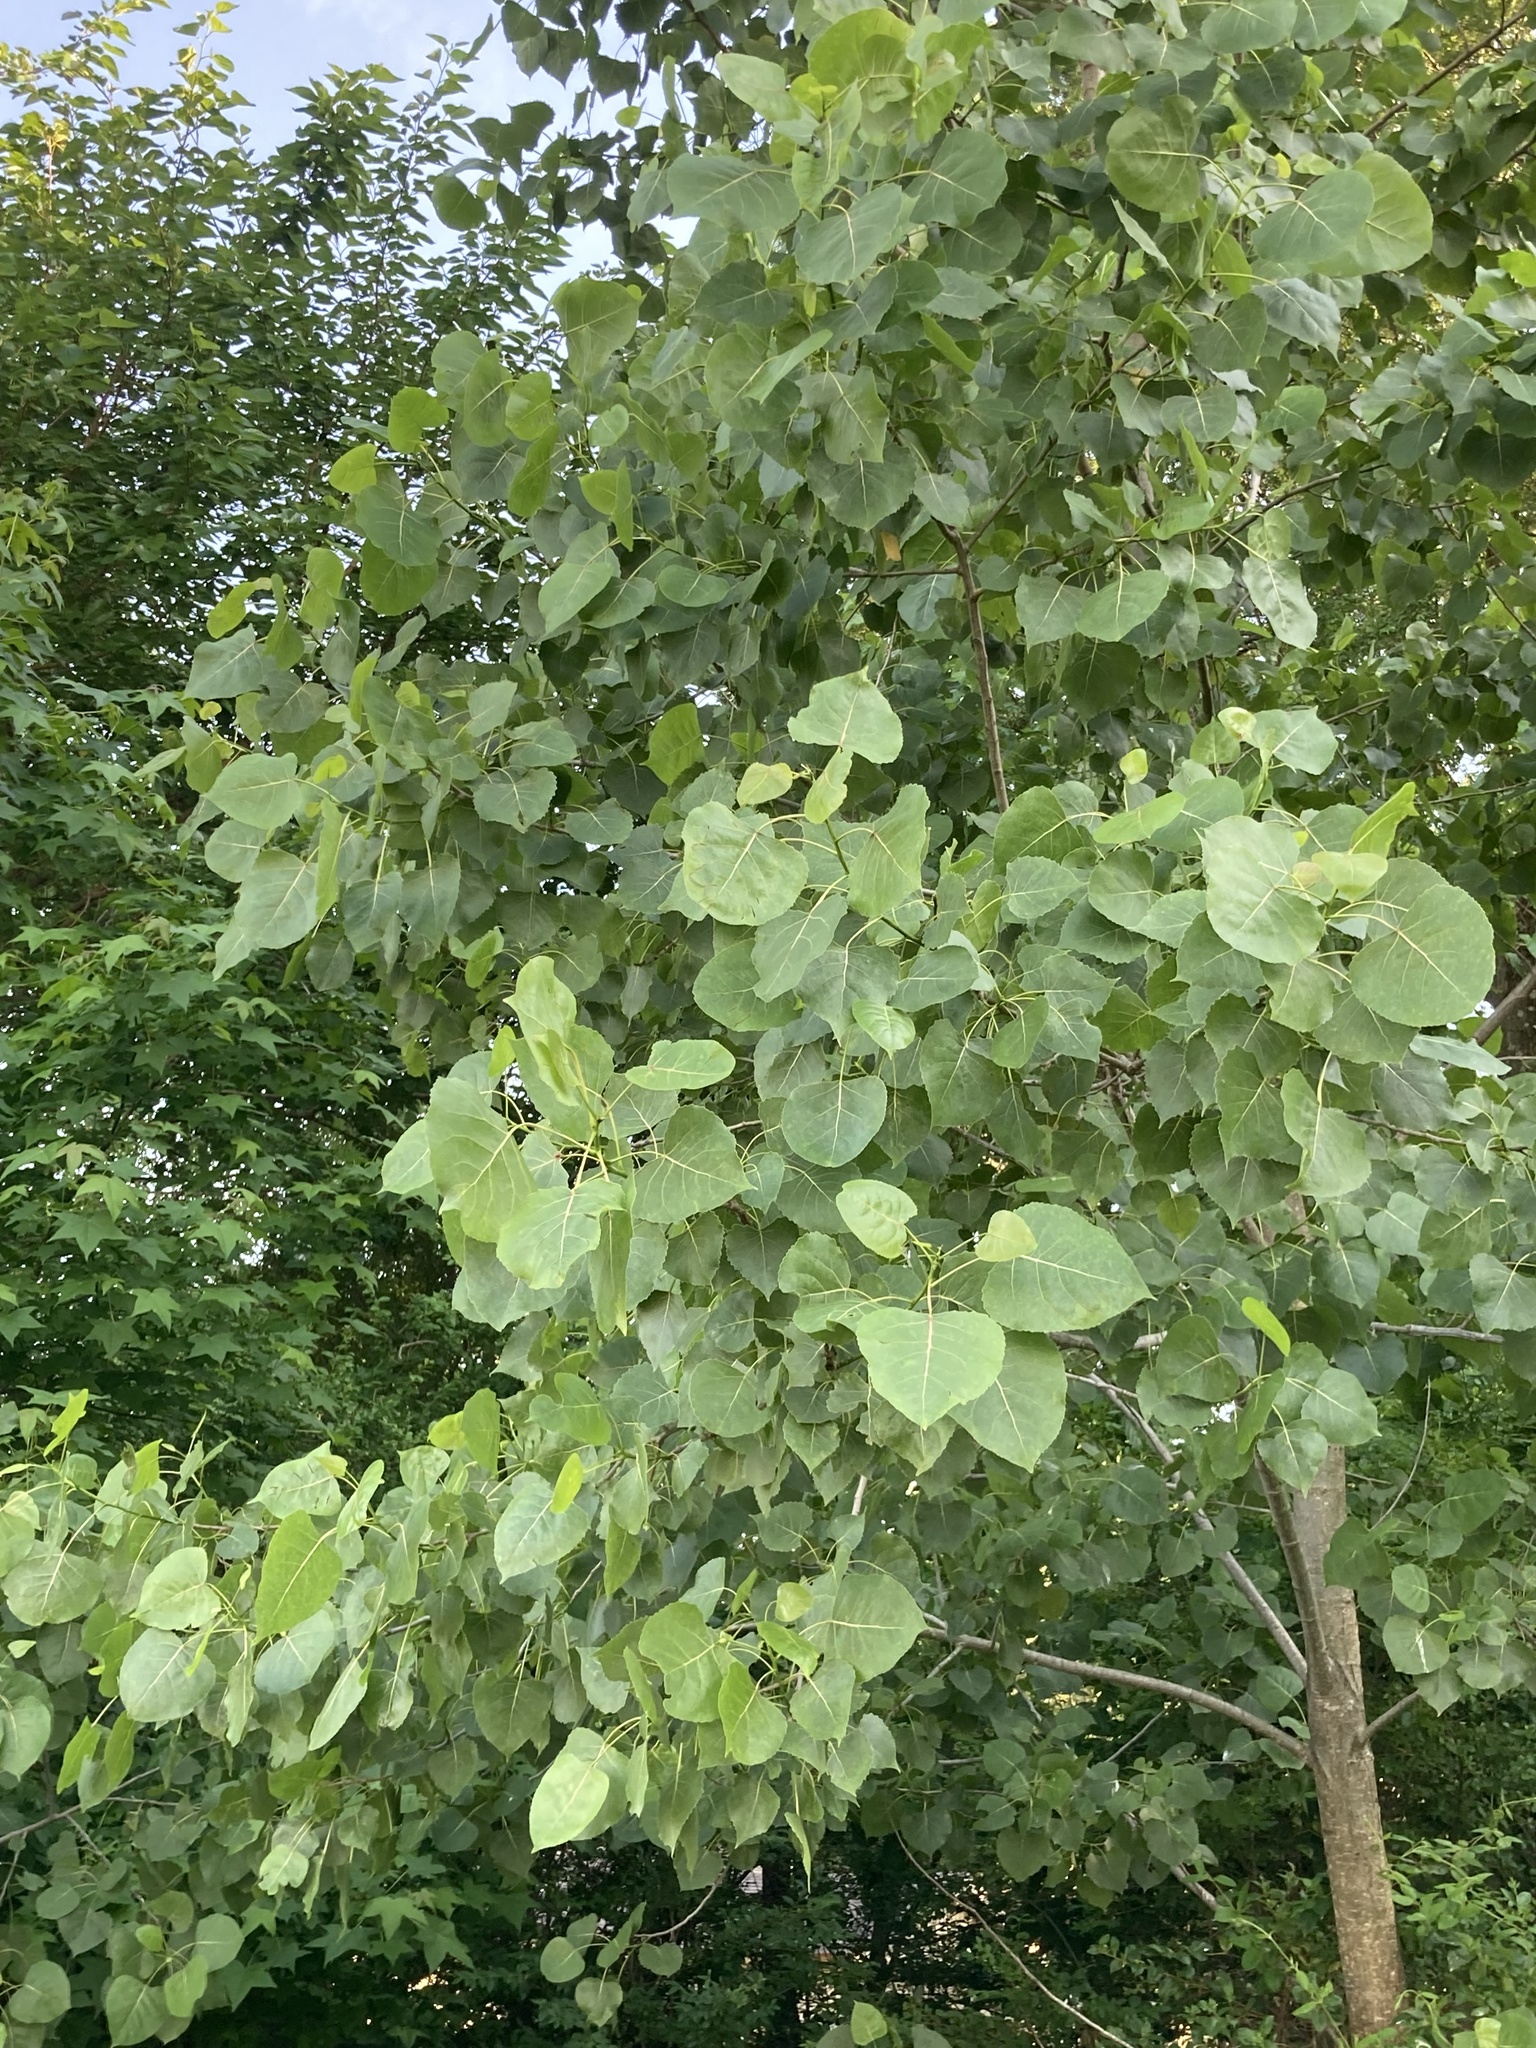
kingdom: Plantae
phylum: Tracheophyta
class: Magnoliopsida
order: Malpighiales
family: Salicaceae
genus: Populus
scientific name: Populus deltoides
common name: Eastern cottonwood
